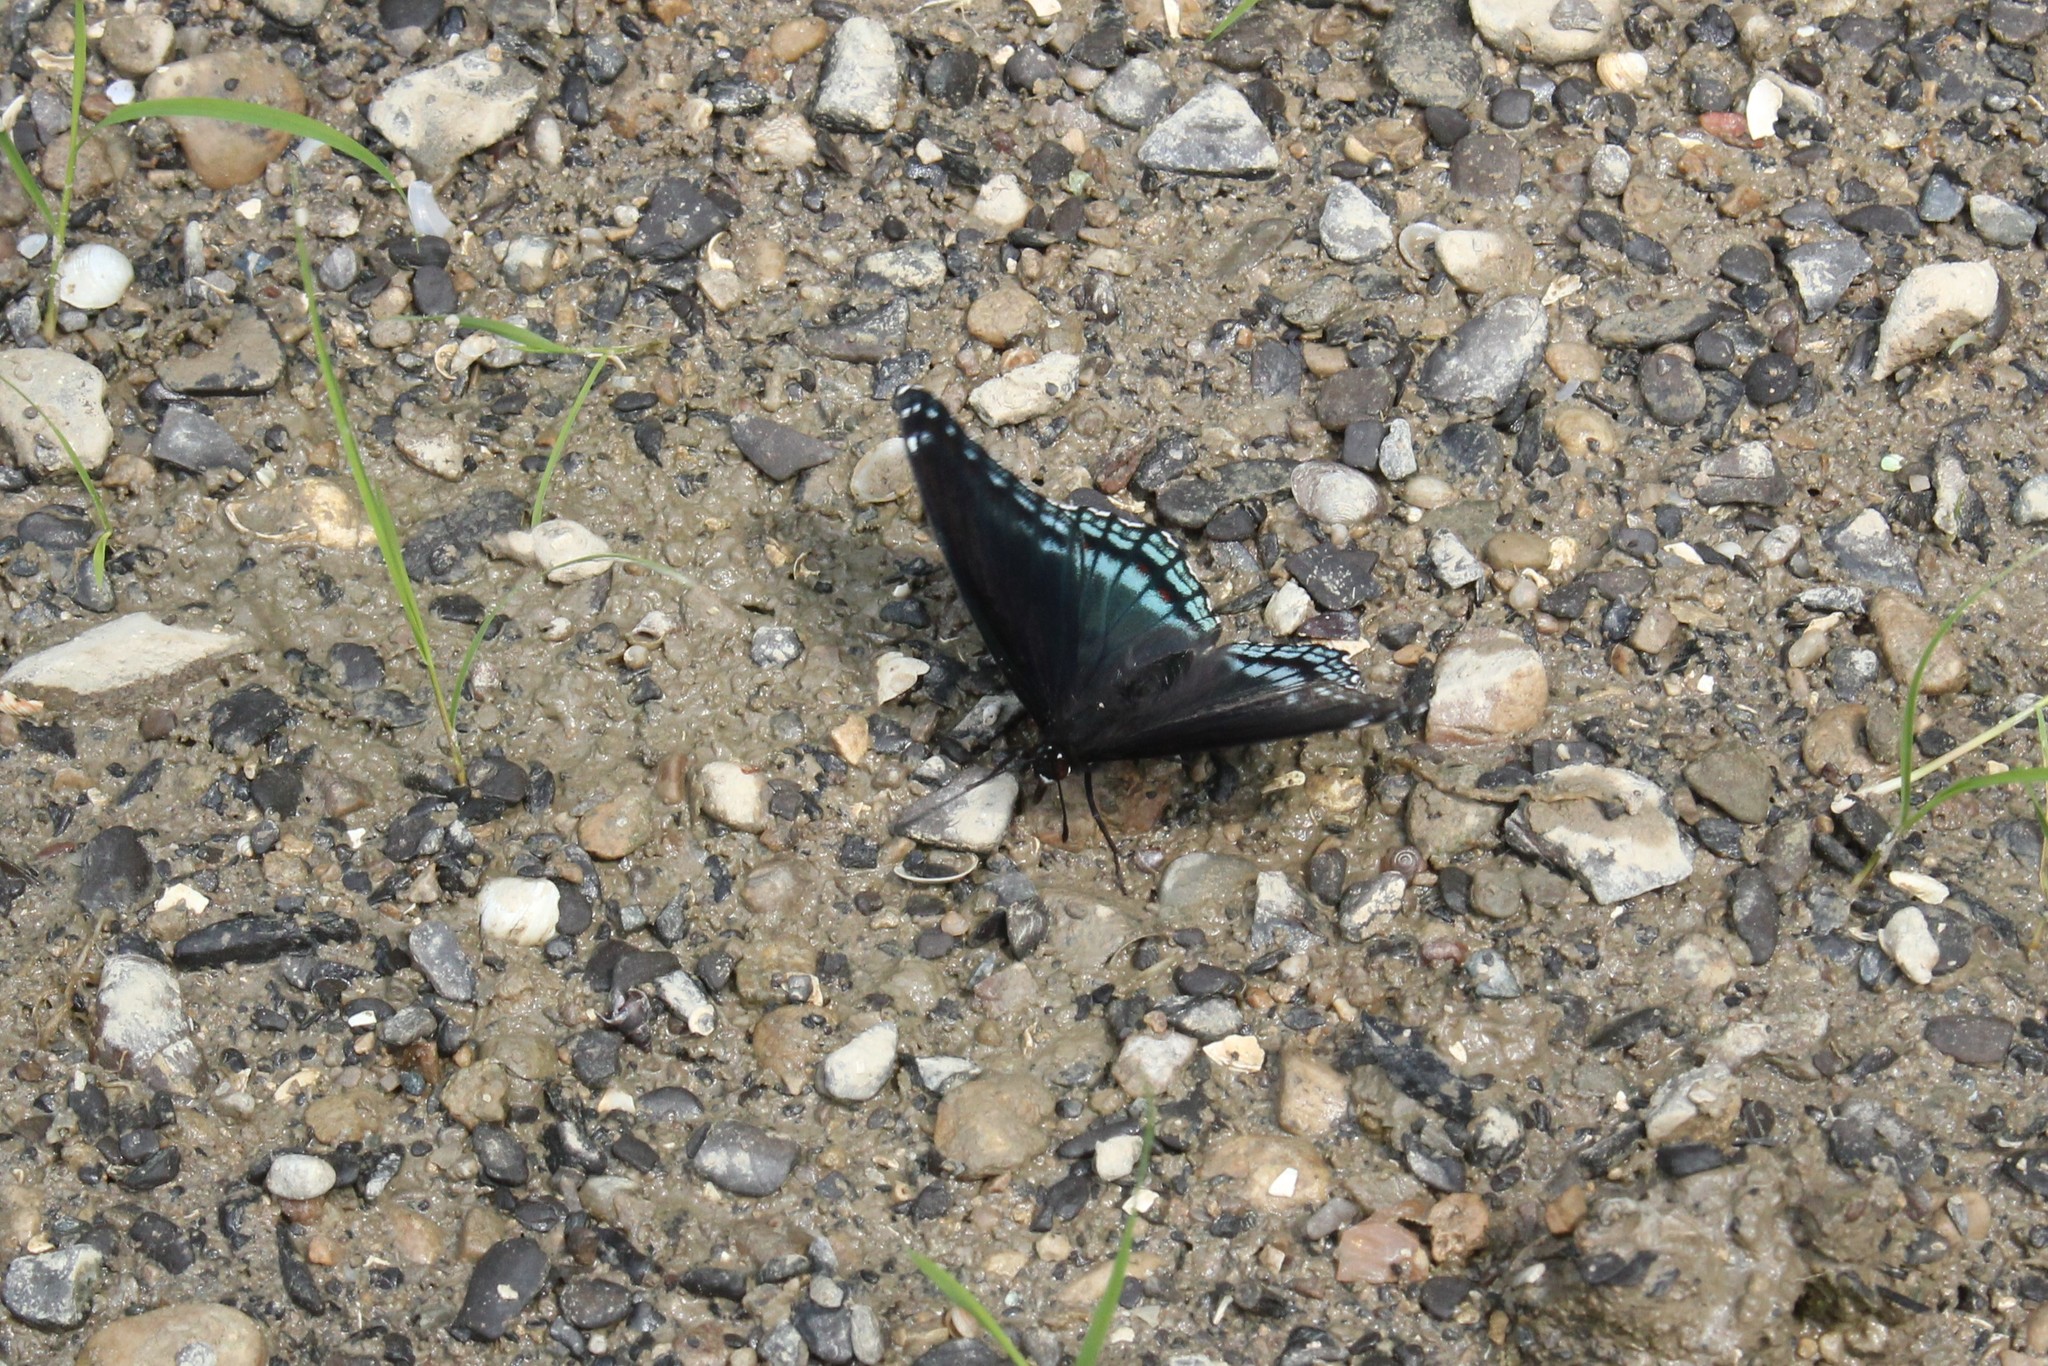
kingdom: Animalia
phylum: Arthropoda
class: Insecta
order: Lepidoptera
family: Nymphalidae
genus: Limenitis
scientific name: Limenitis astyanax
